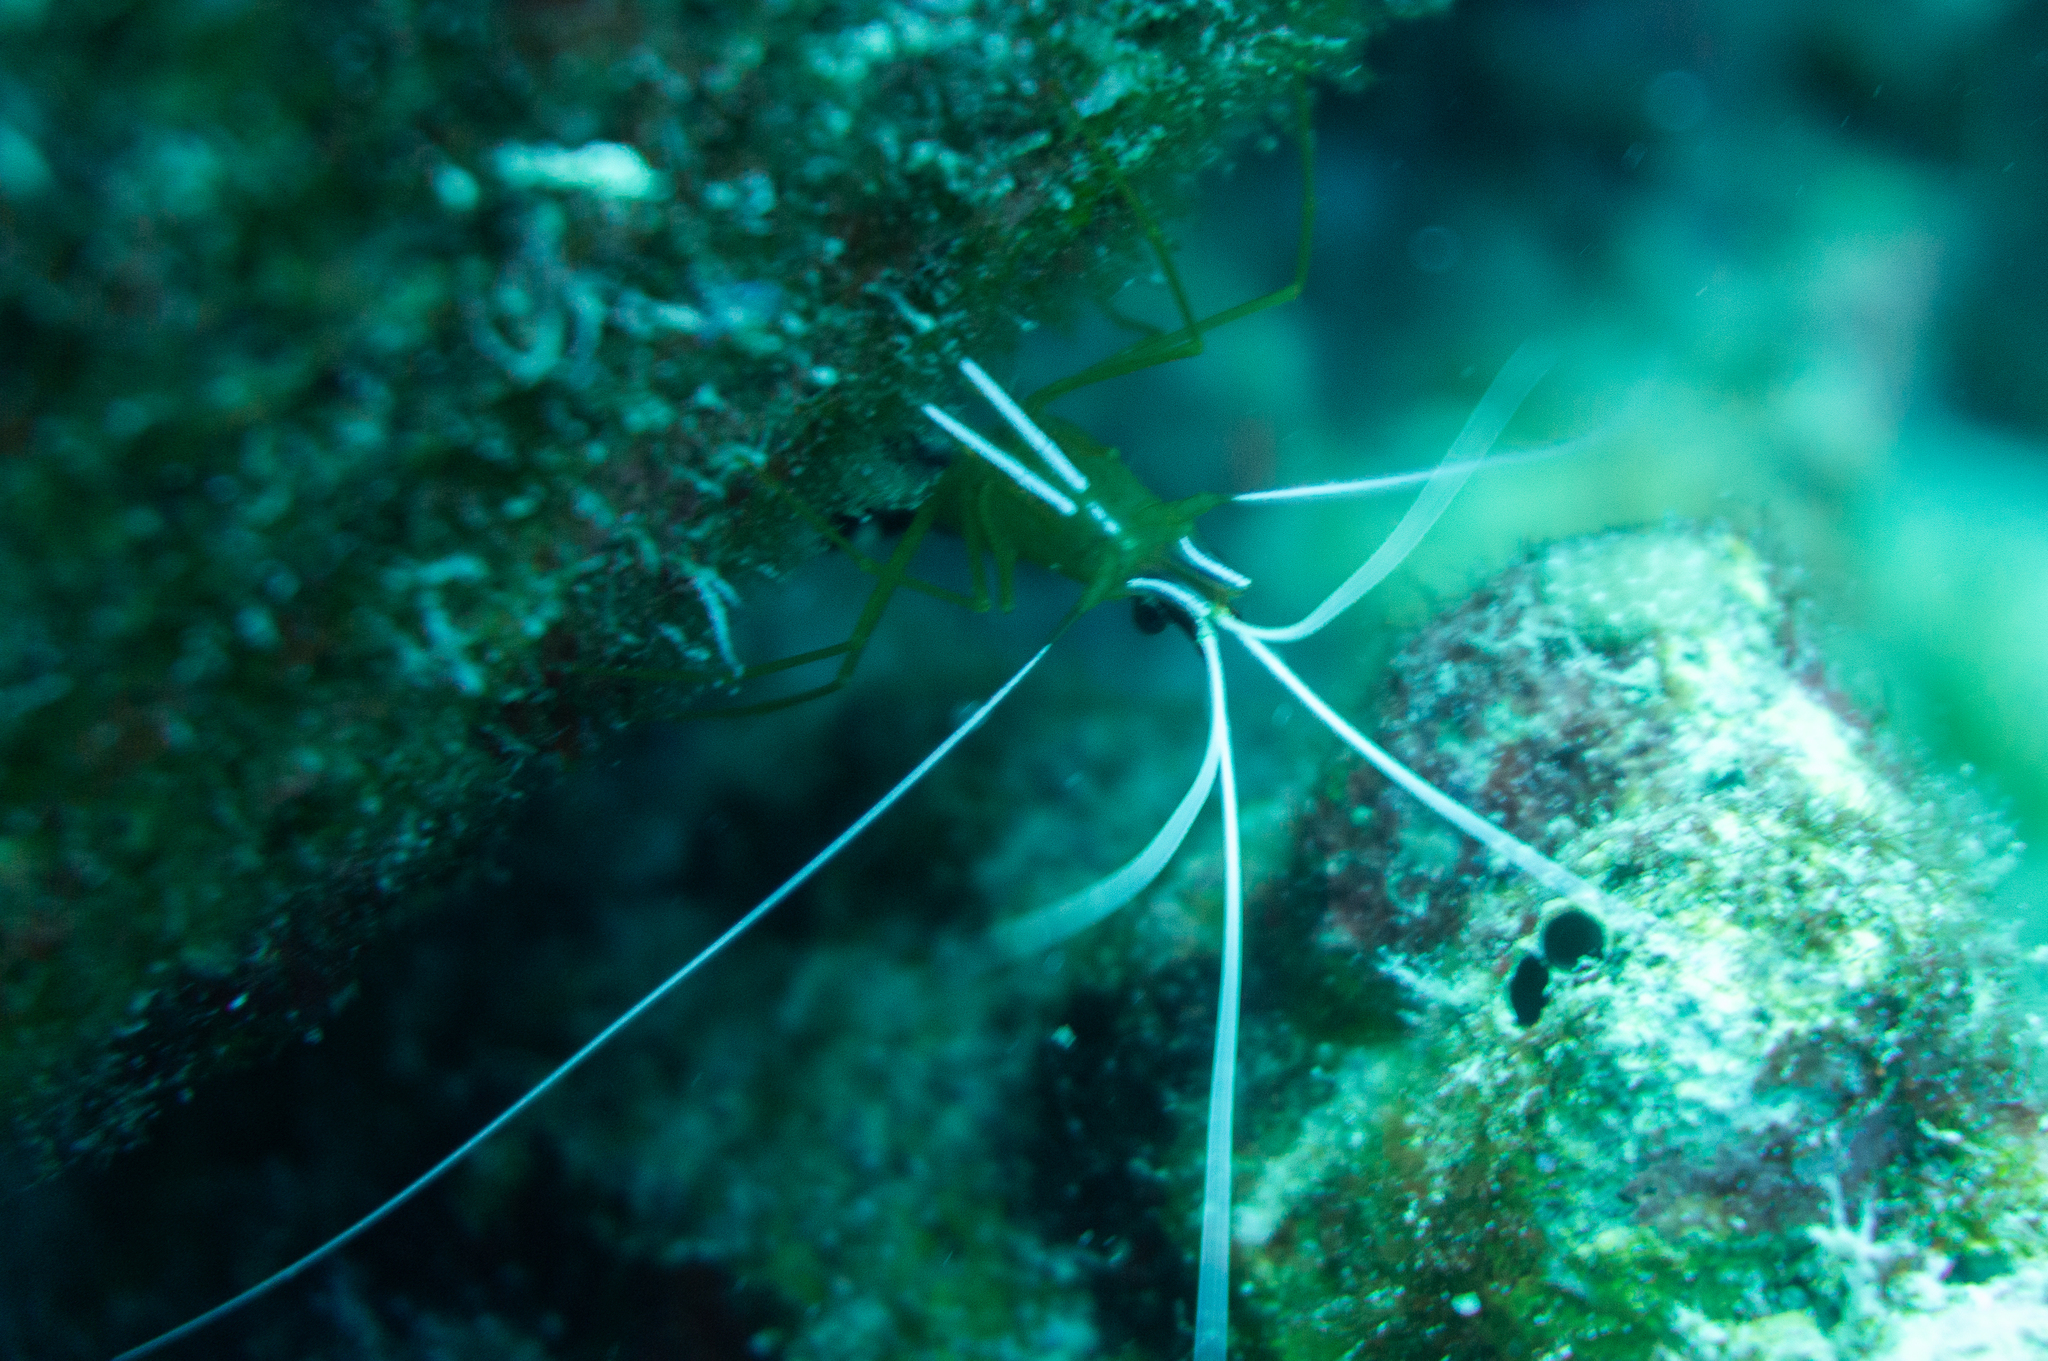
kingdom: Animalia
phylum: Arthropoda
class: Malacostraca
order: Decapoda
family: Lysmatidae
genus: Lysmata
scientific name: Lysmata amboinensis
